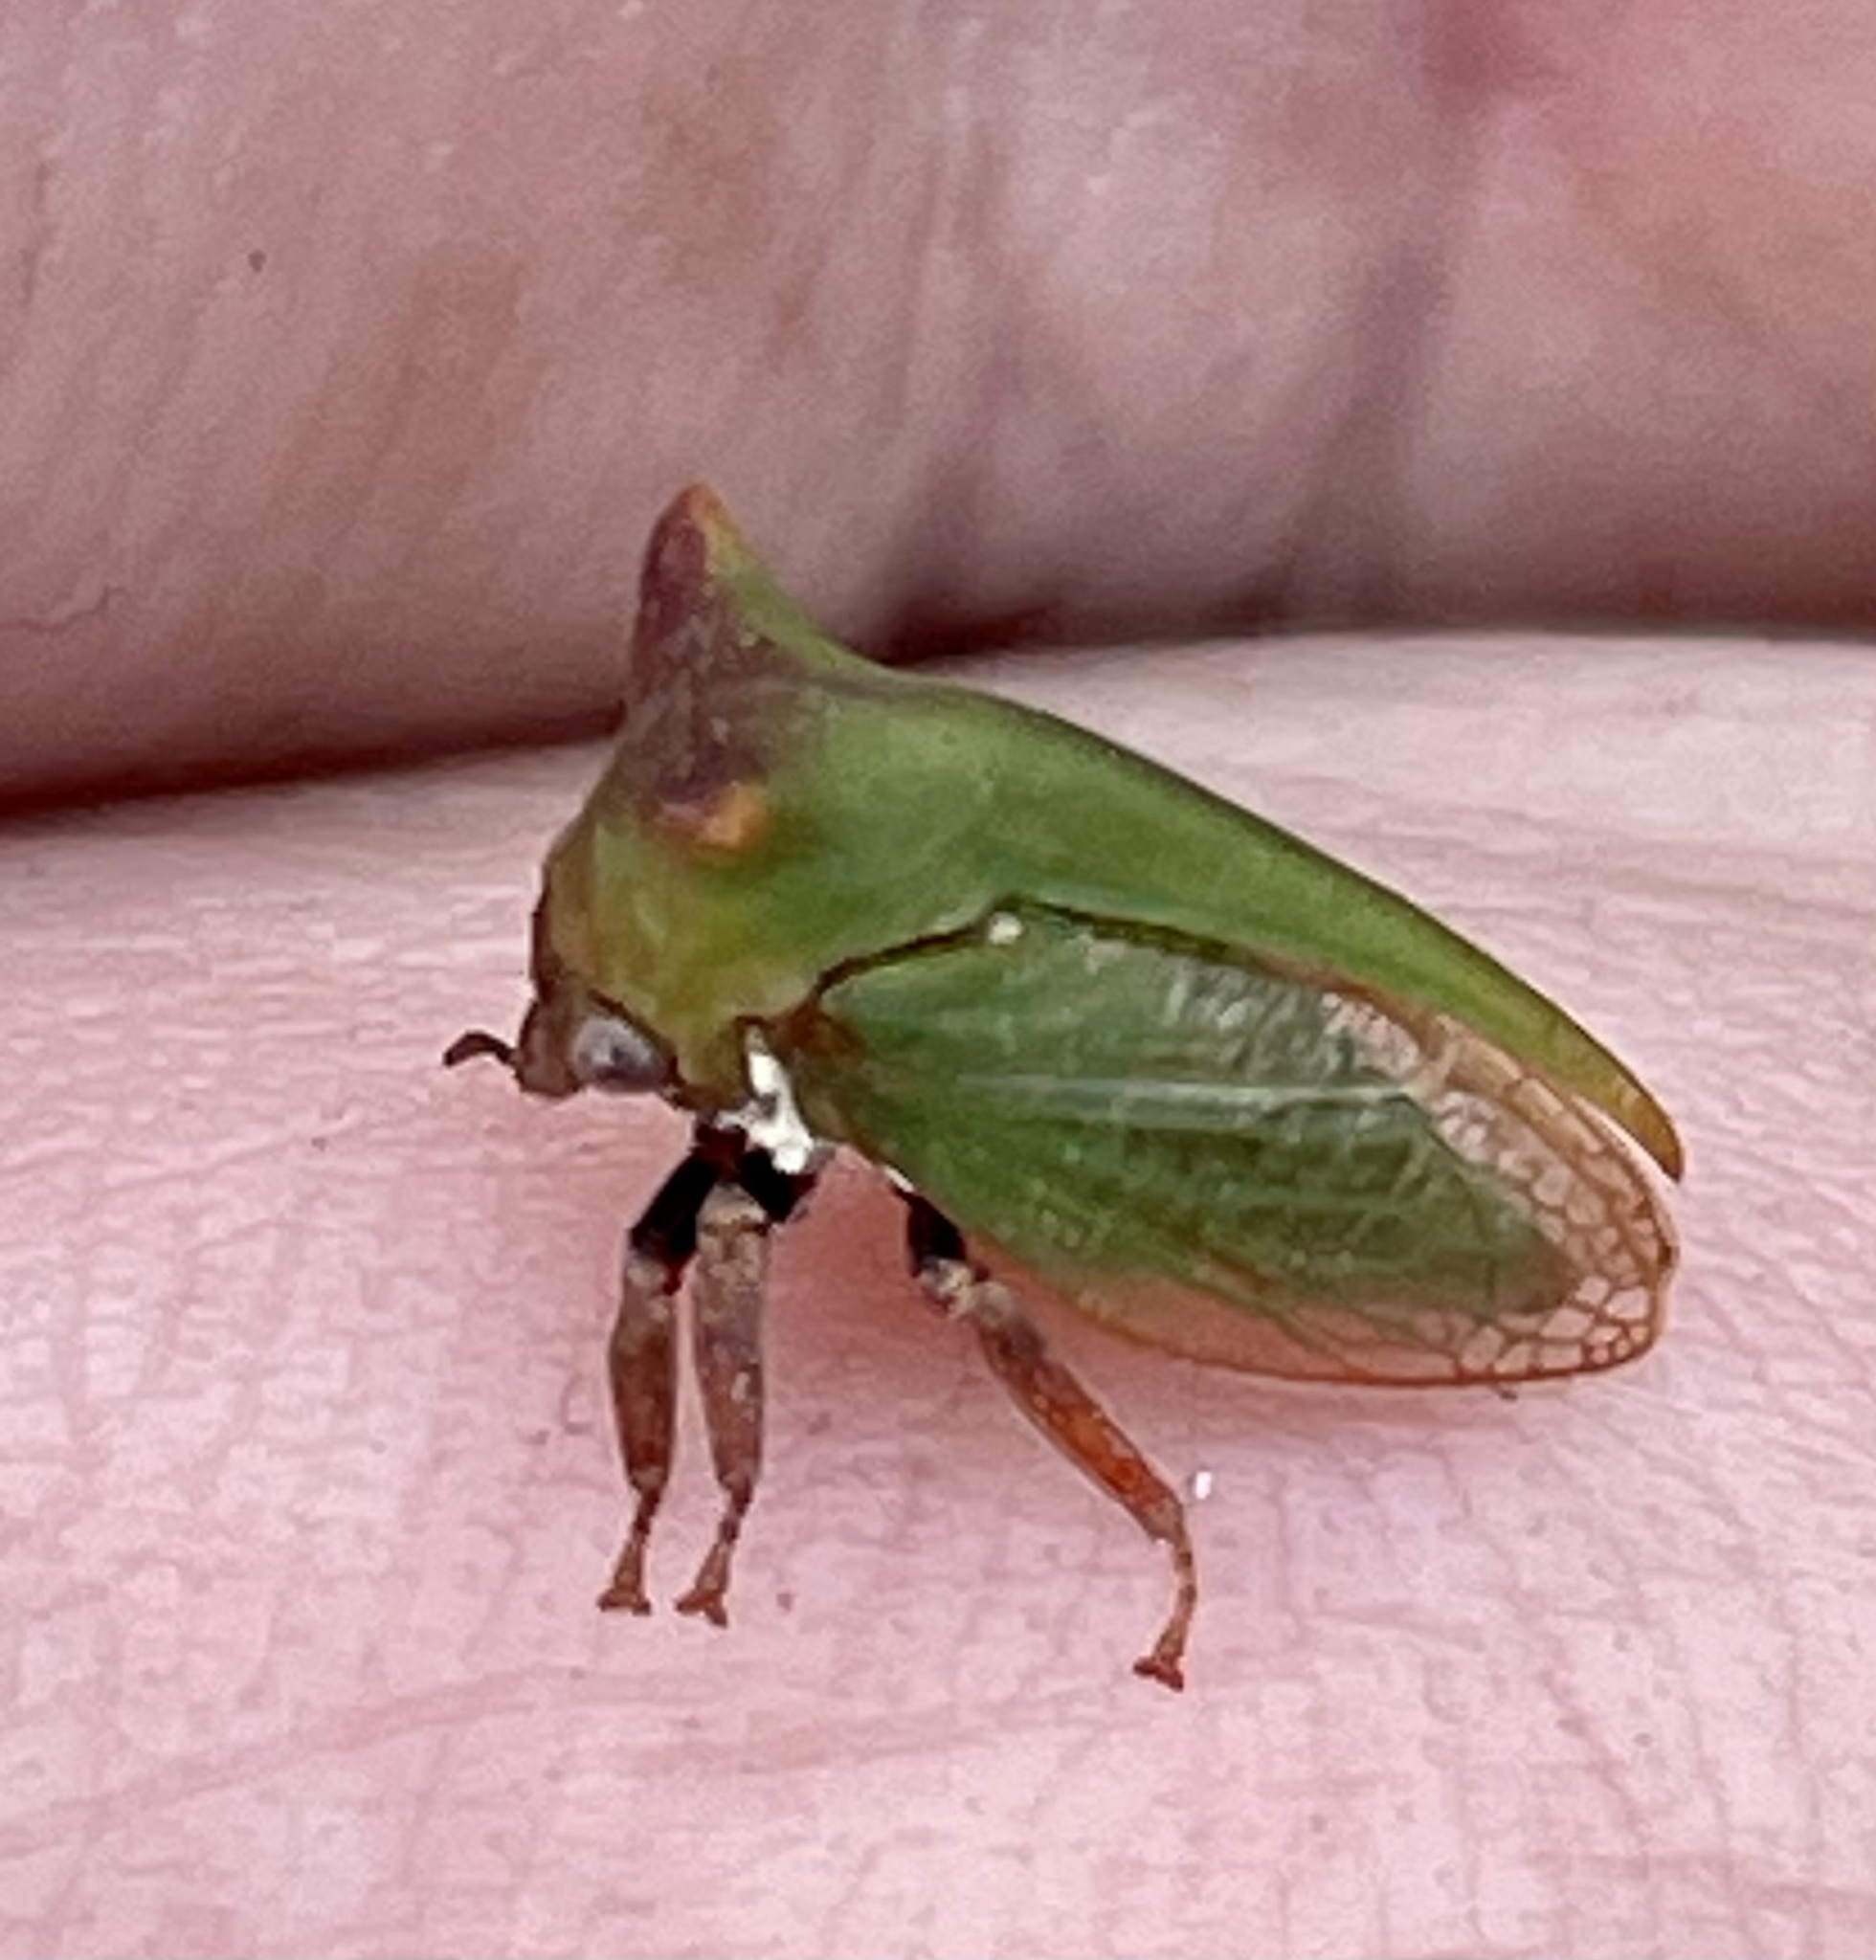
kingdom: Animalia
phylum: Arthropoda
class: Insecta
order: Hemiptera
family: Membracidae
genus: Sextius
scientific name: Sextius virescens
